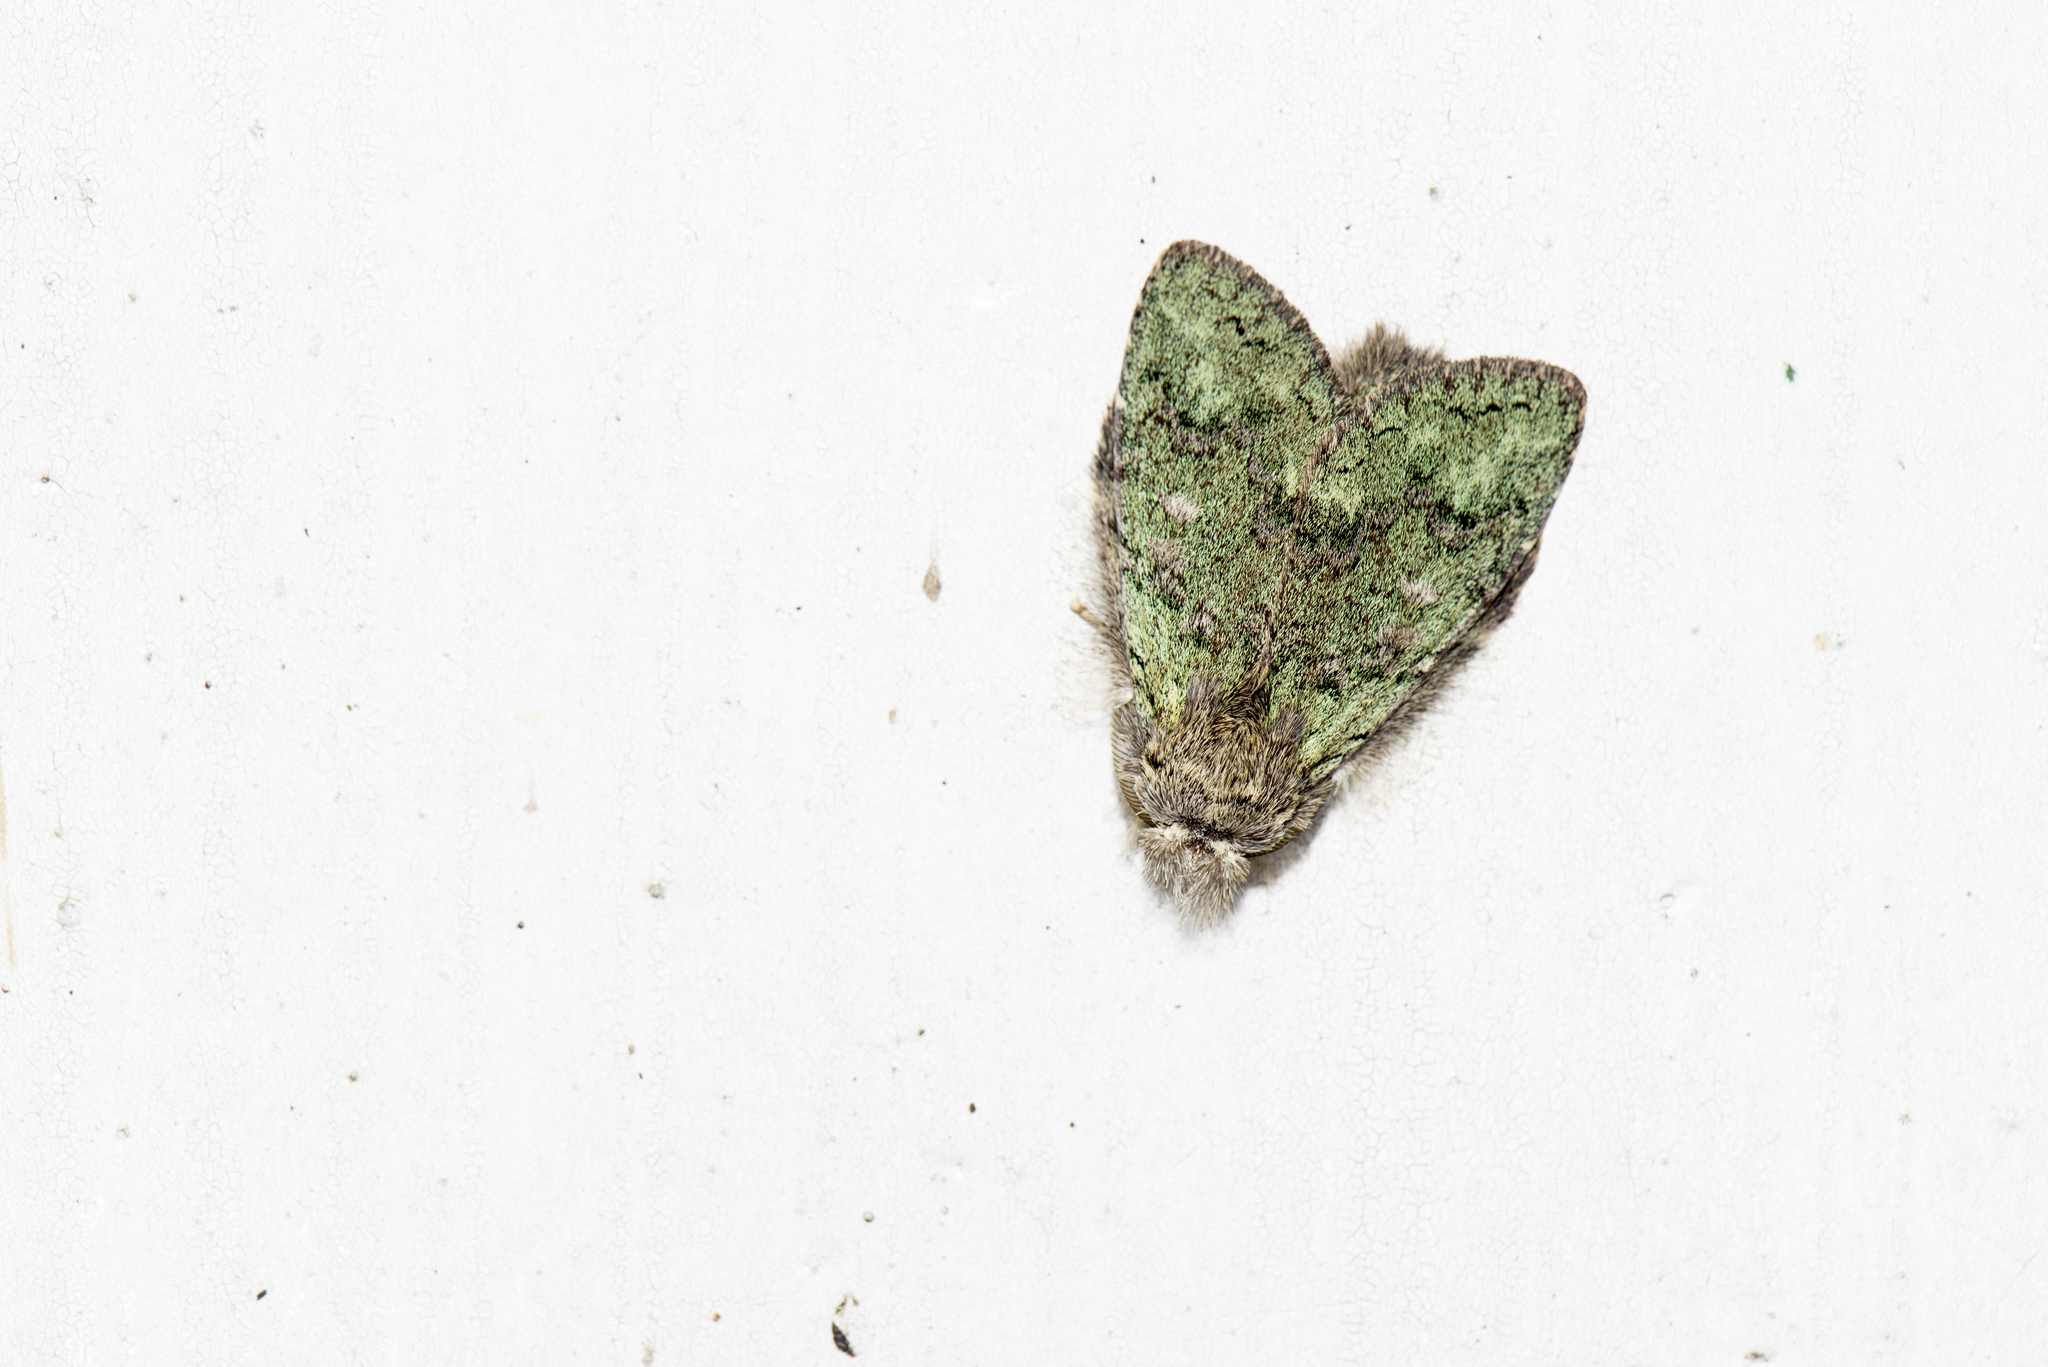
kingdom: Animalia
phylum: Arthropoda
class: Insecta
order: Lepidoptera
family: Notodontidae
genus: Syntypistis
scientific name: Syntypistis viridipicta
